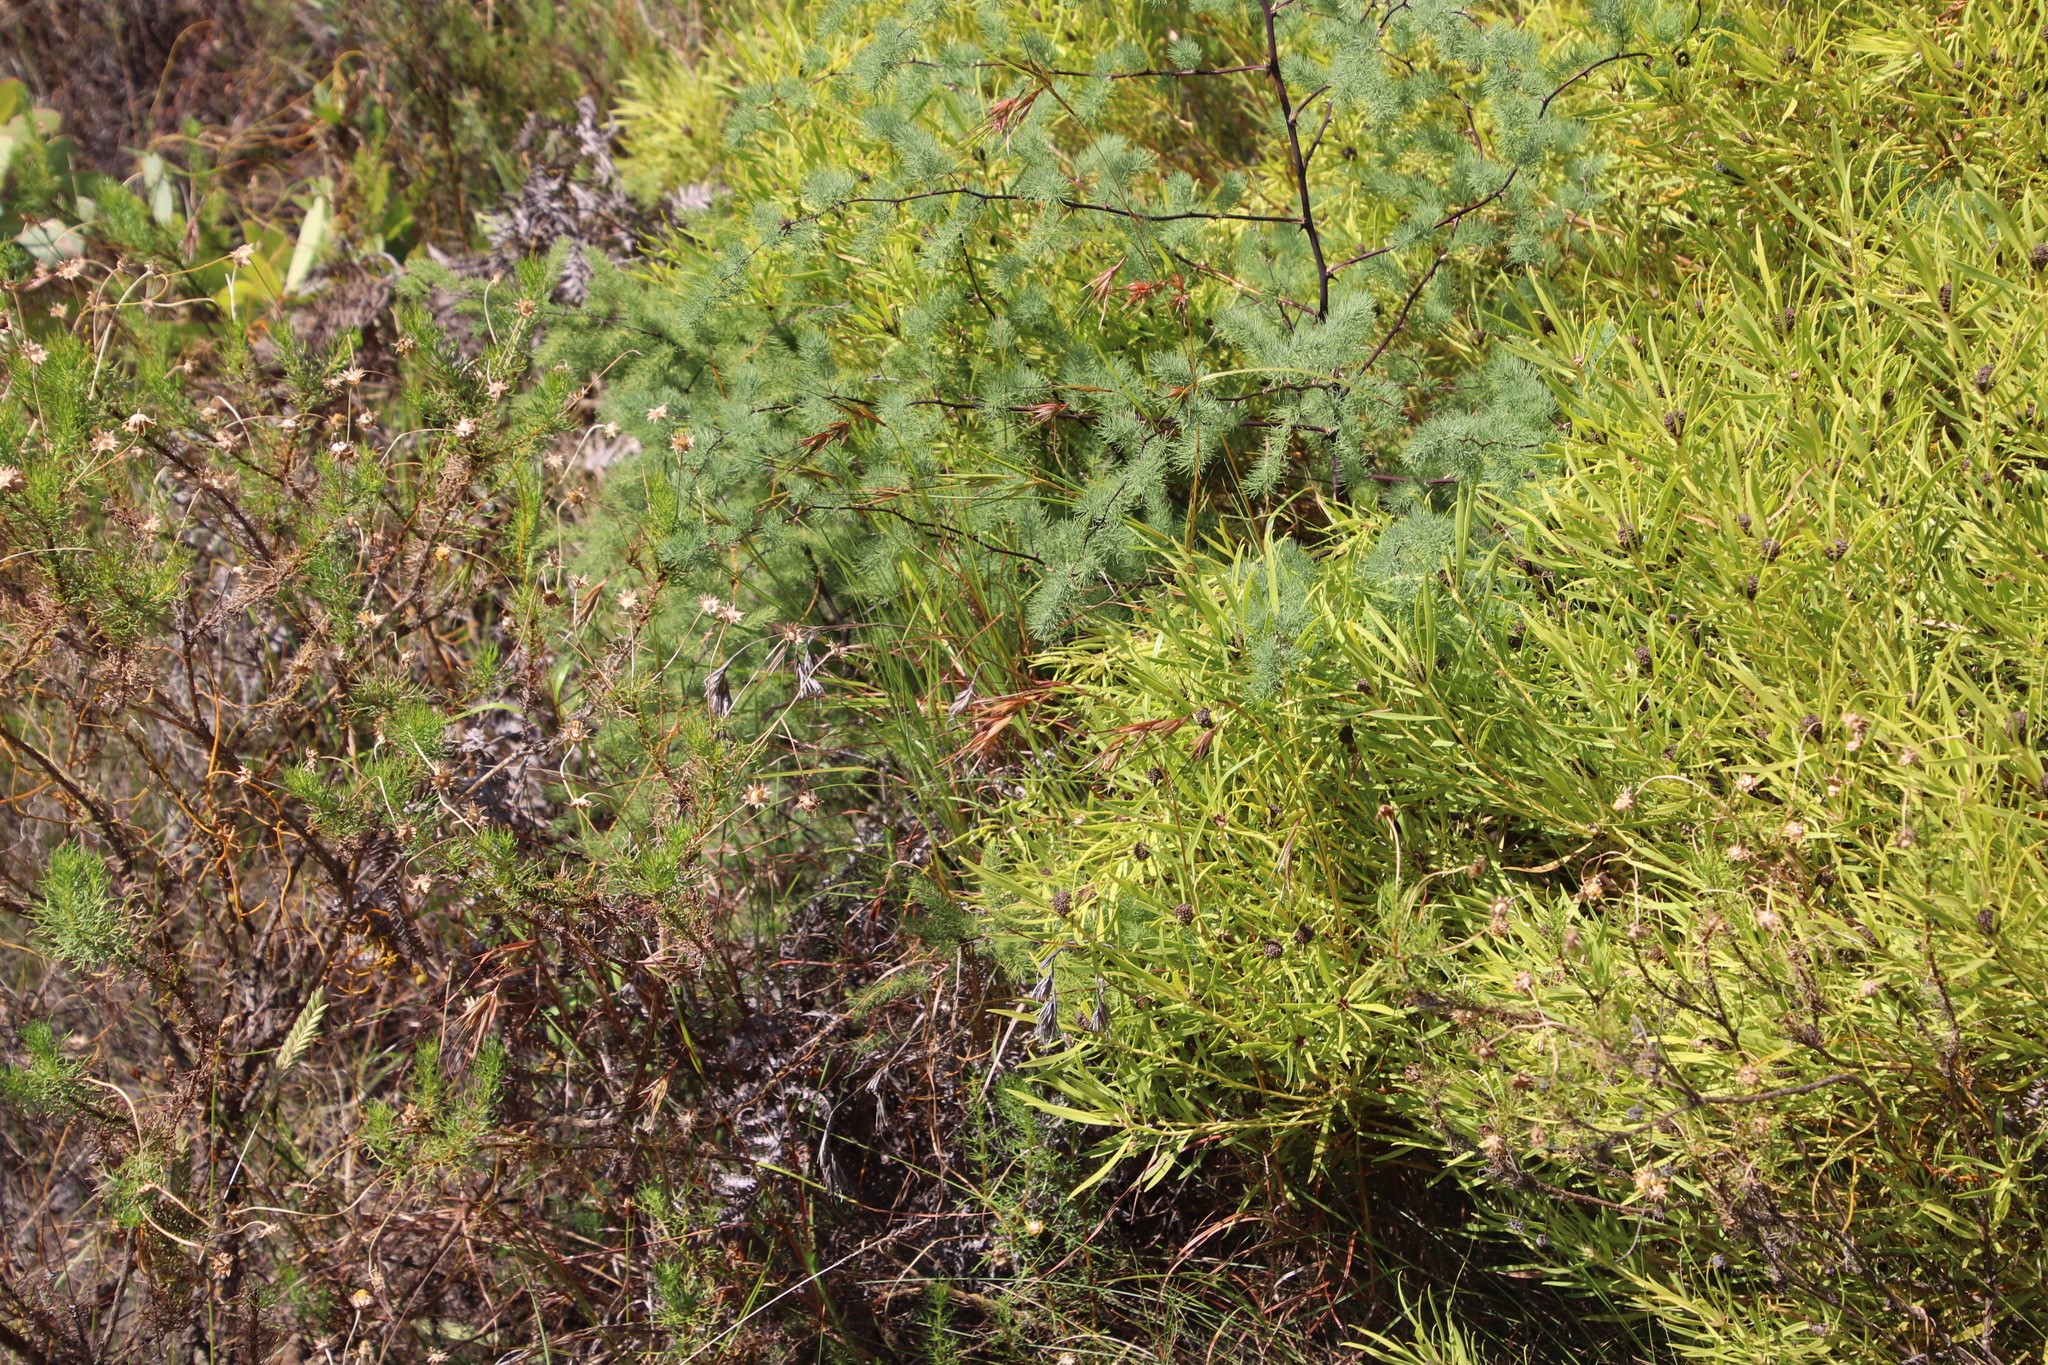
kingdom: Plantae
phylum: Tracheophyta
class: Liliopsida
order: Poales
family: Poaceae
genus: Themeda
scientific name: Themeda triandra
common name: Kangaroo grass
